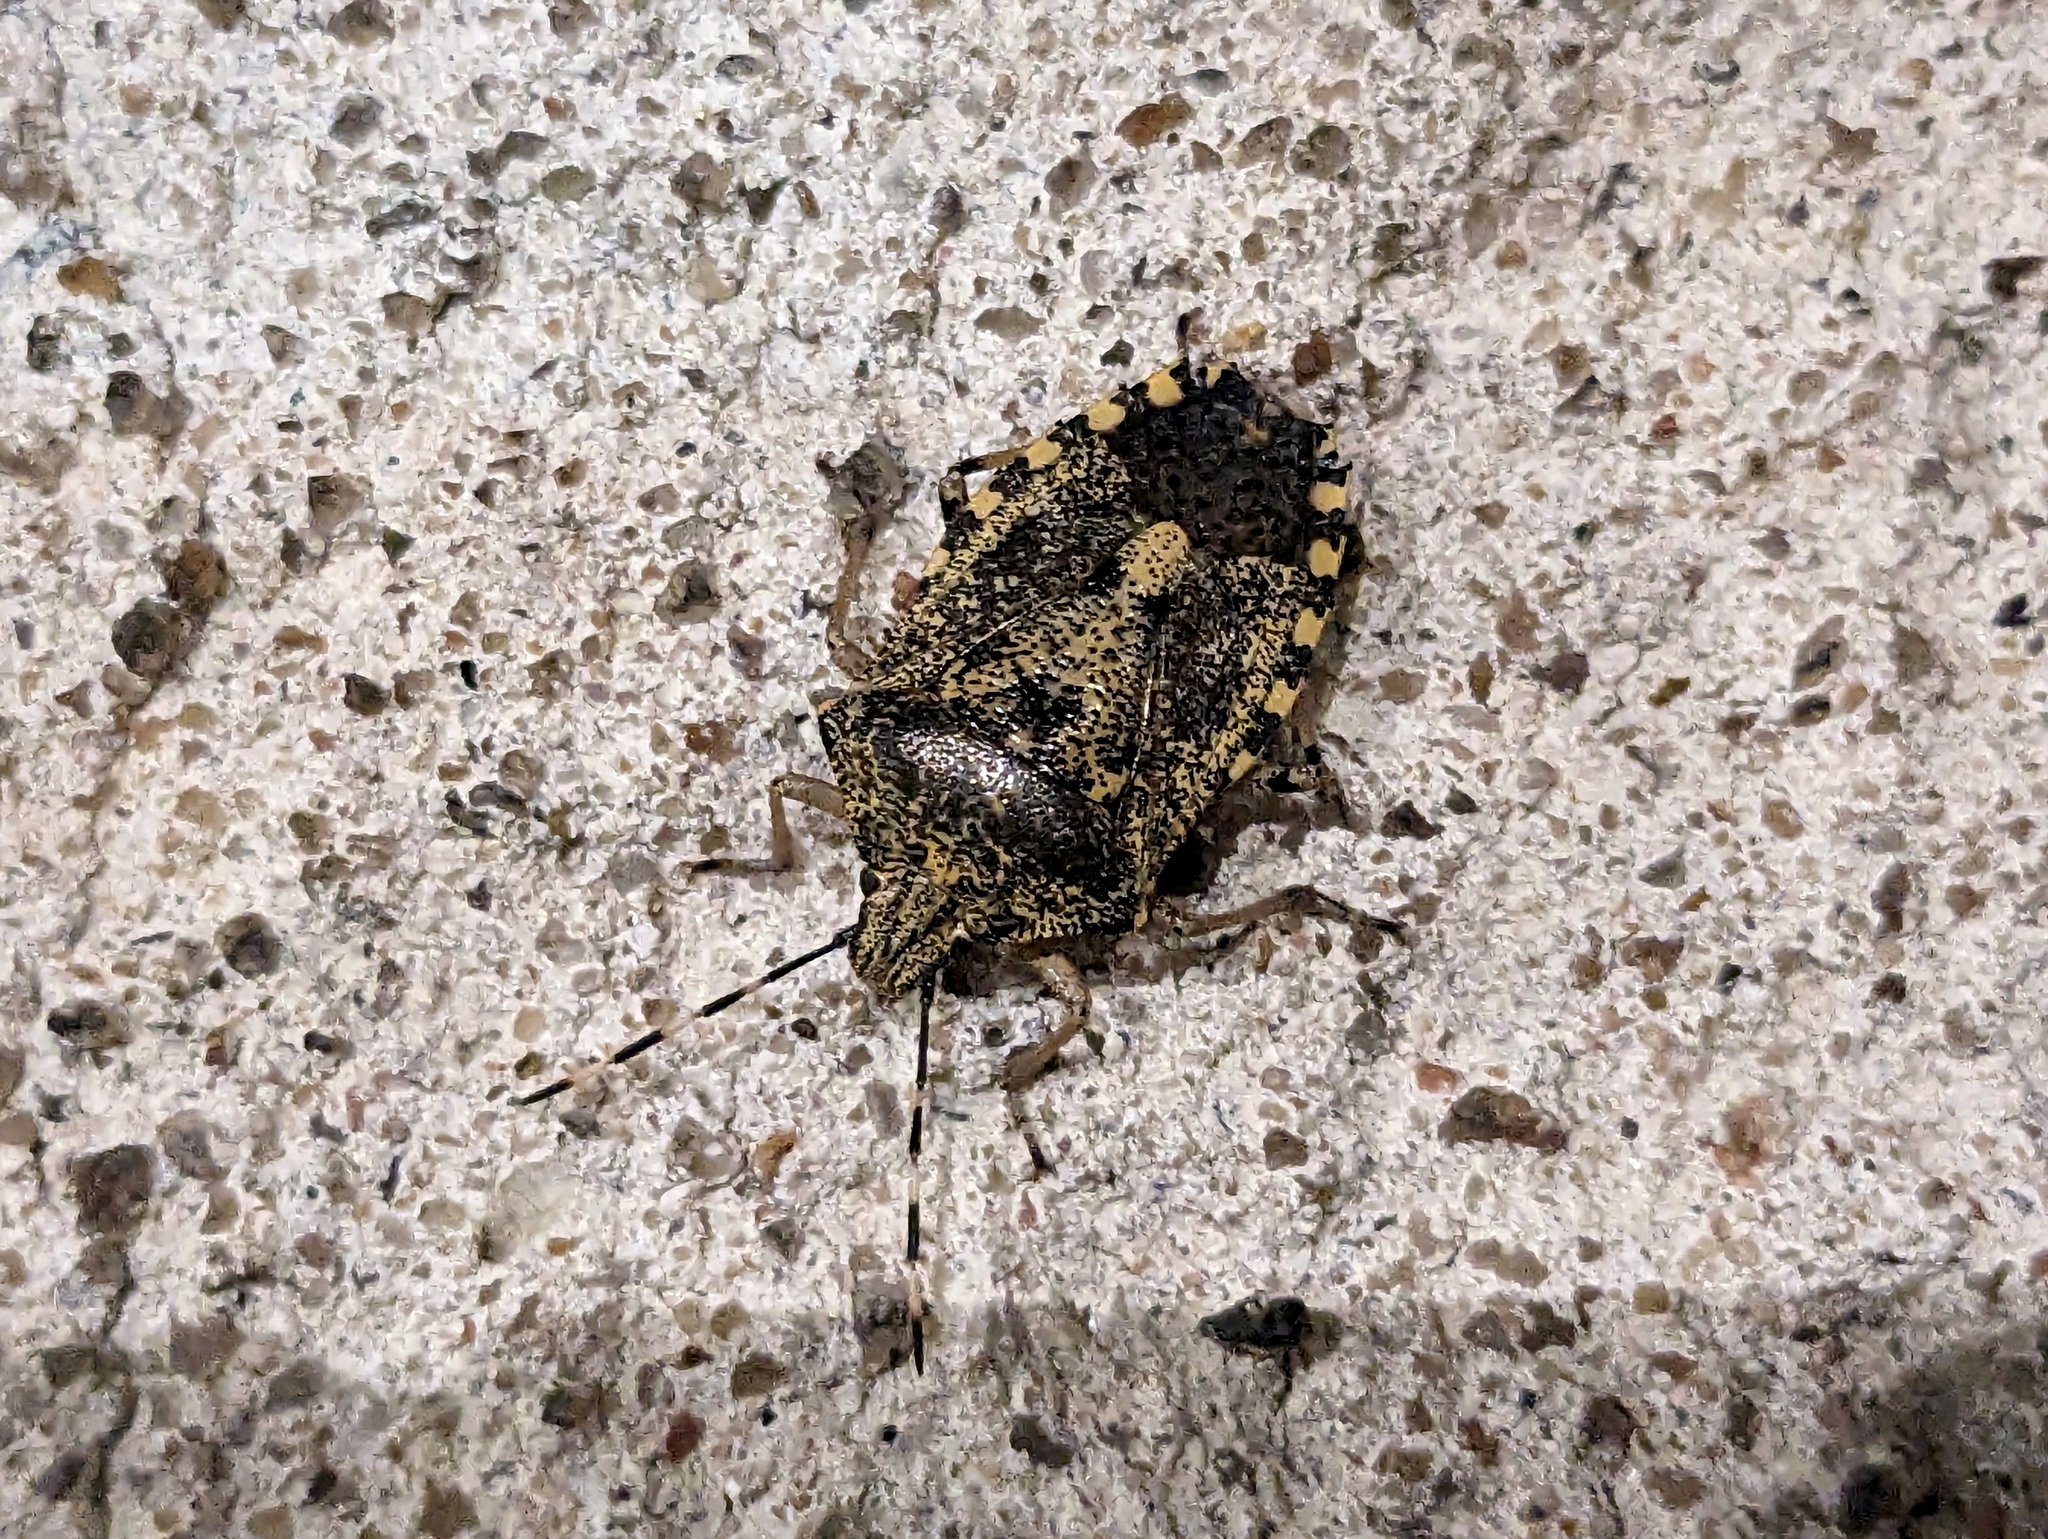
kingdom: Animalia
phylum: Arthropoda
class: Insecta
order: Hemiptera
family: Pentatomidae
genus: Rhaphigaster
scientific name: Rhaphigaster nebulosa
